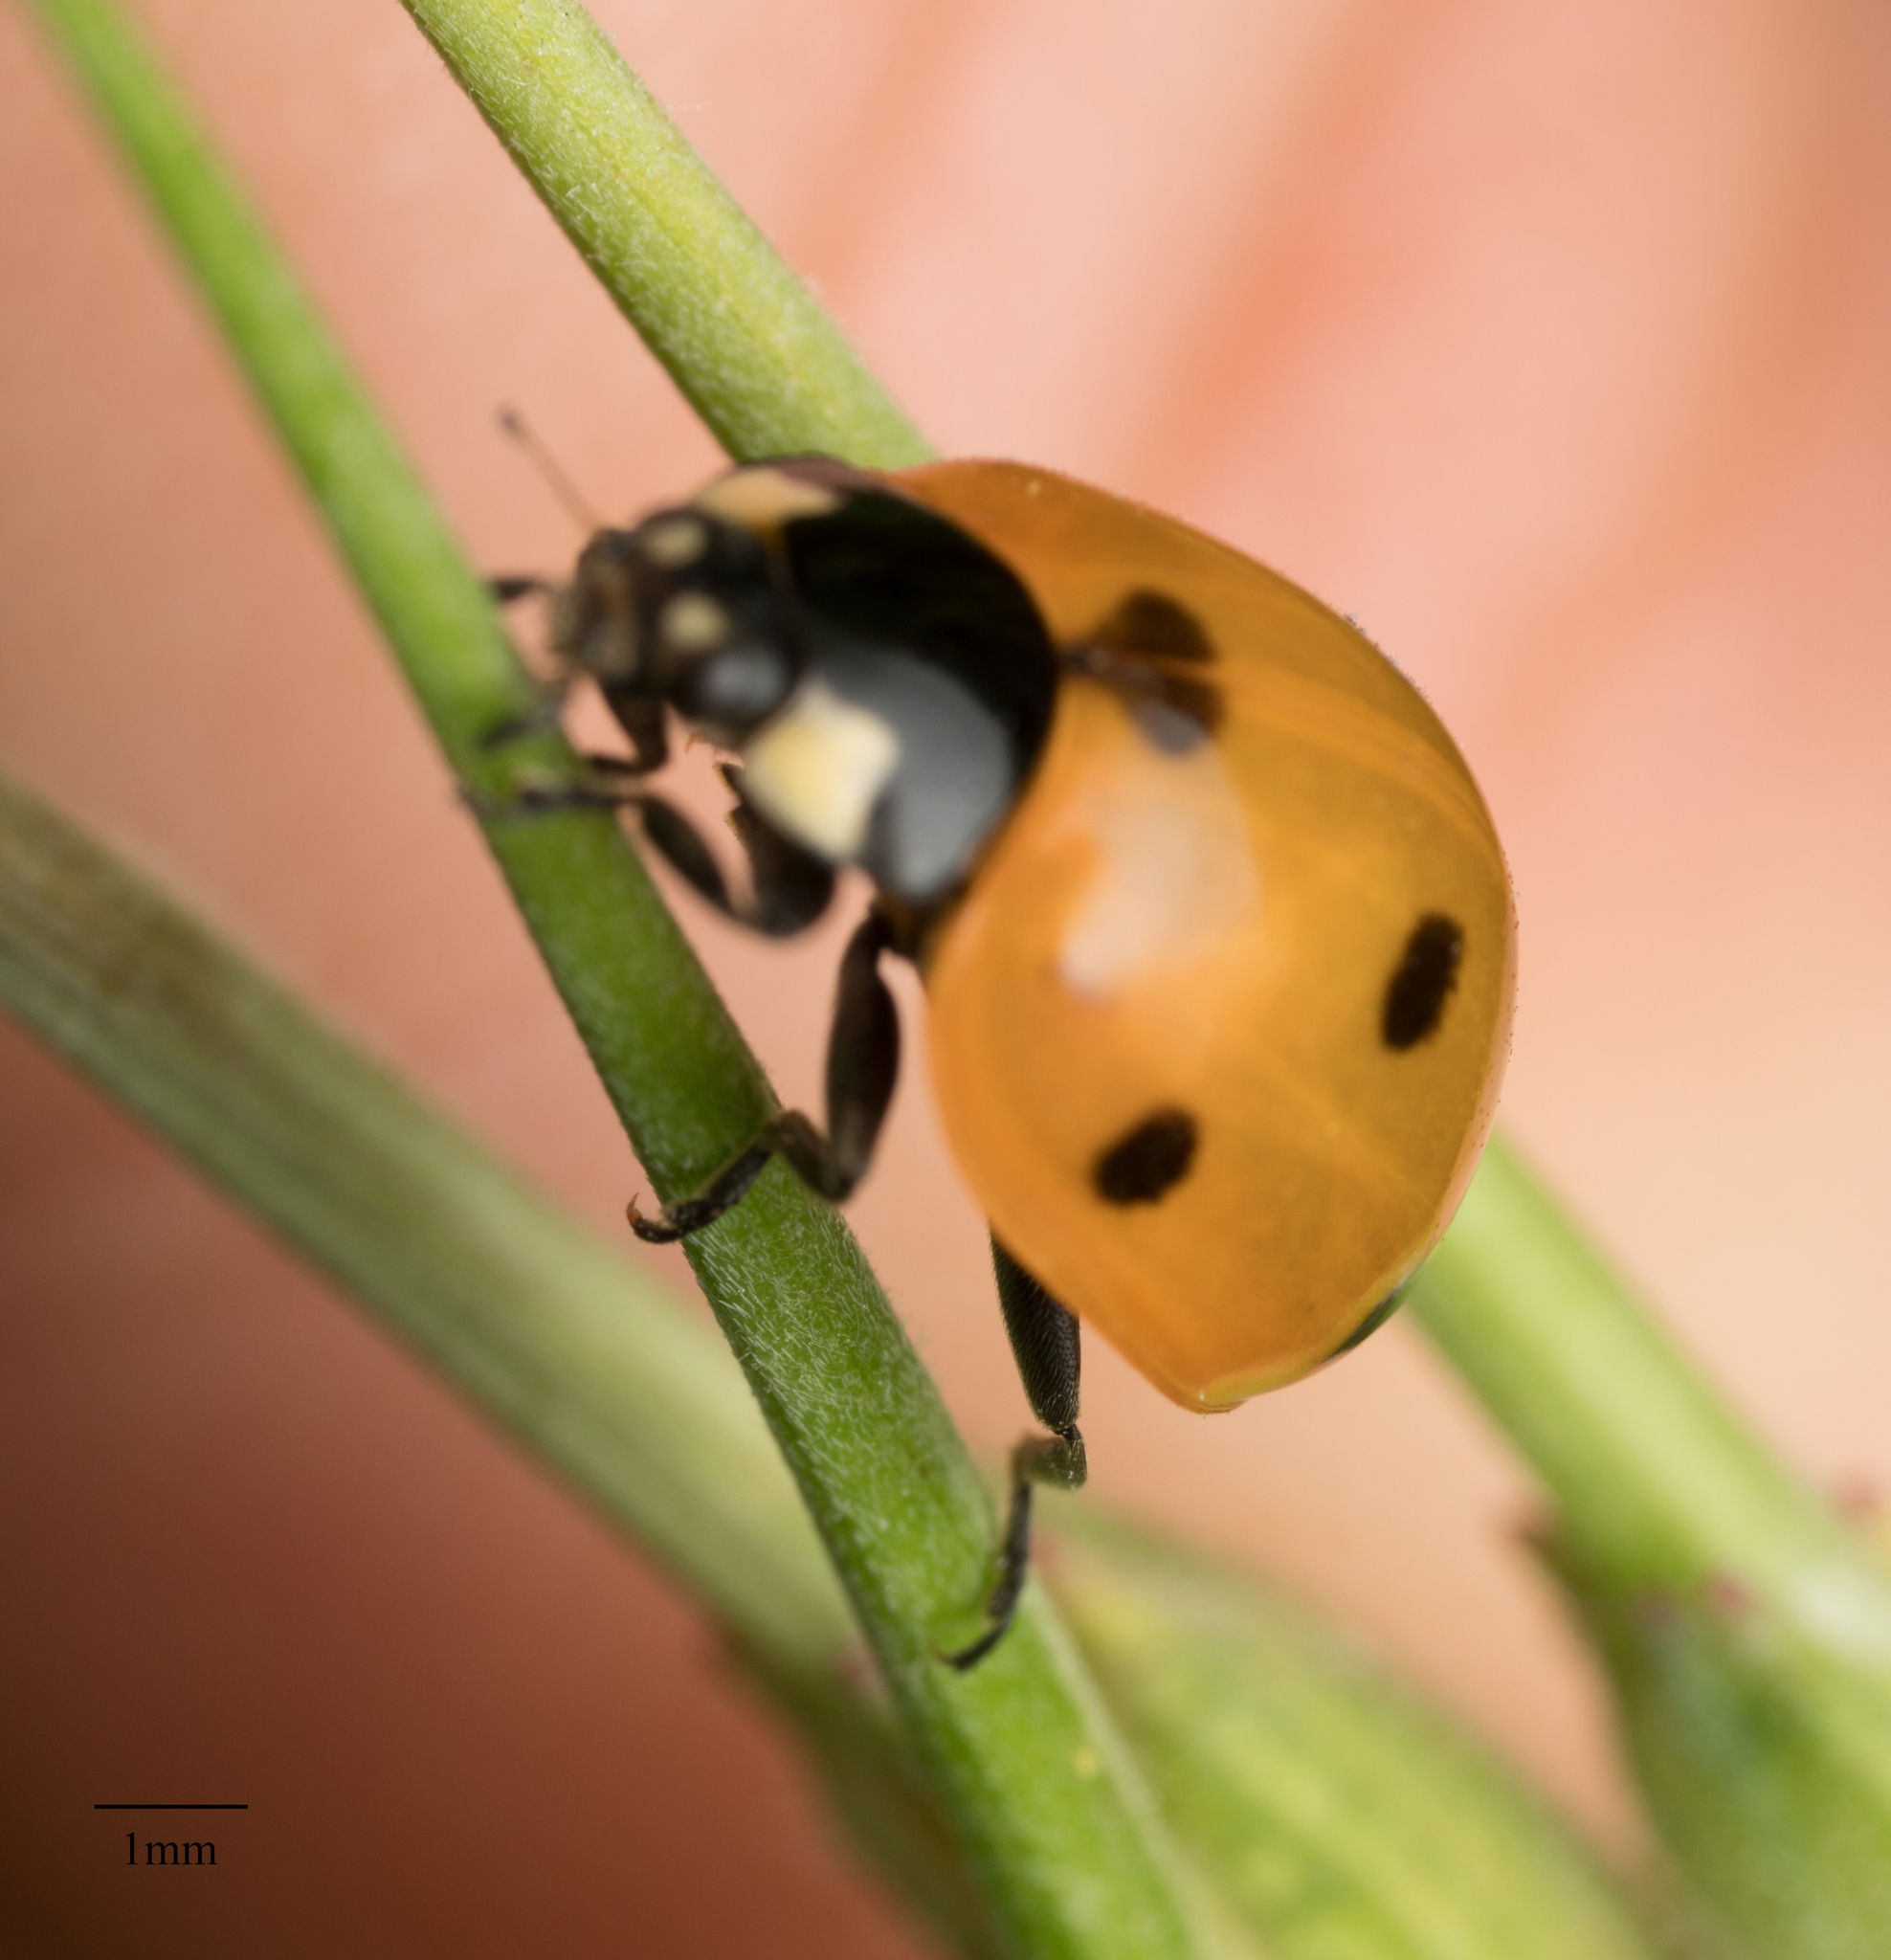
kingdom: Animalia
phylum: Arthropoda
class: Insecta
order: Coleoptera
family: Coccinellidae
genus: Coccinella
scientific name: Coccinella septempunctata
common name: Sevenspotted lady beetle
